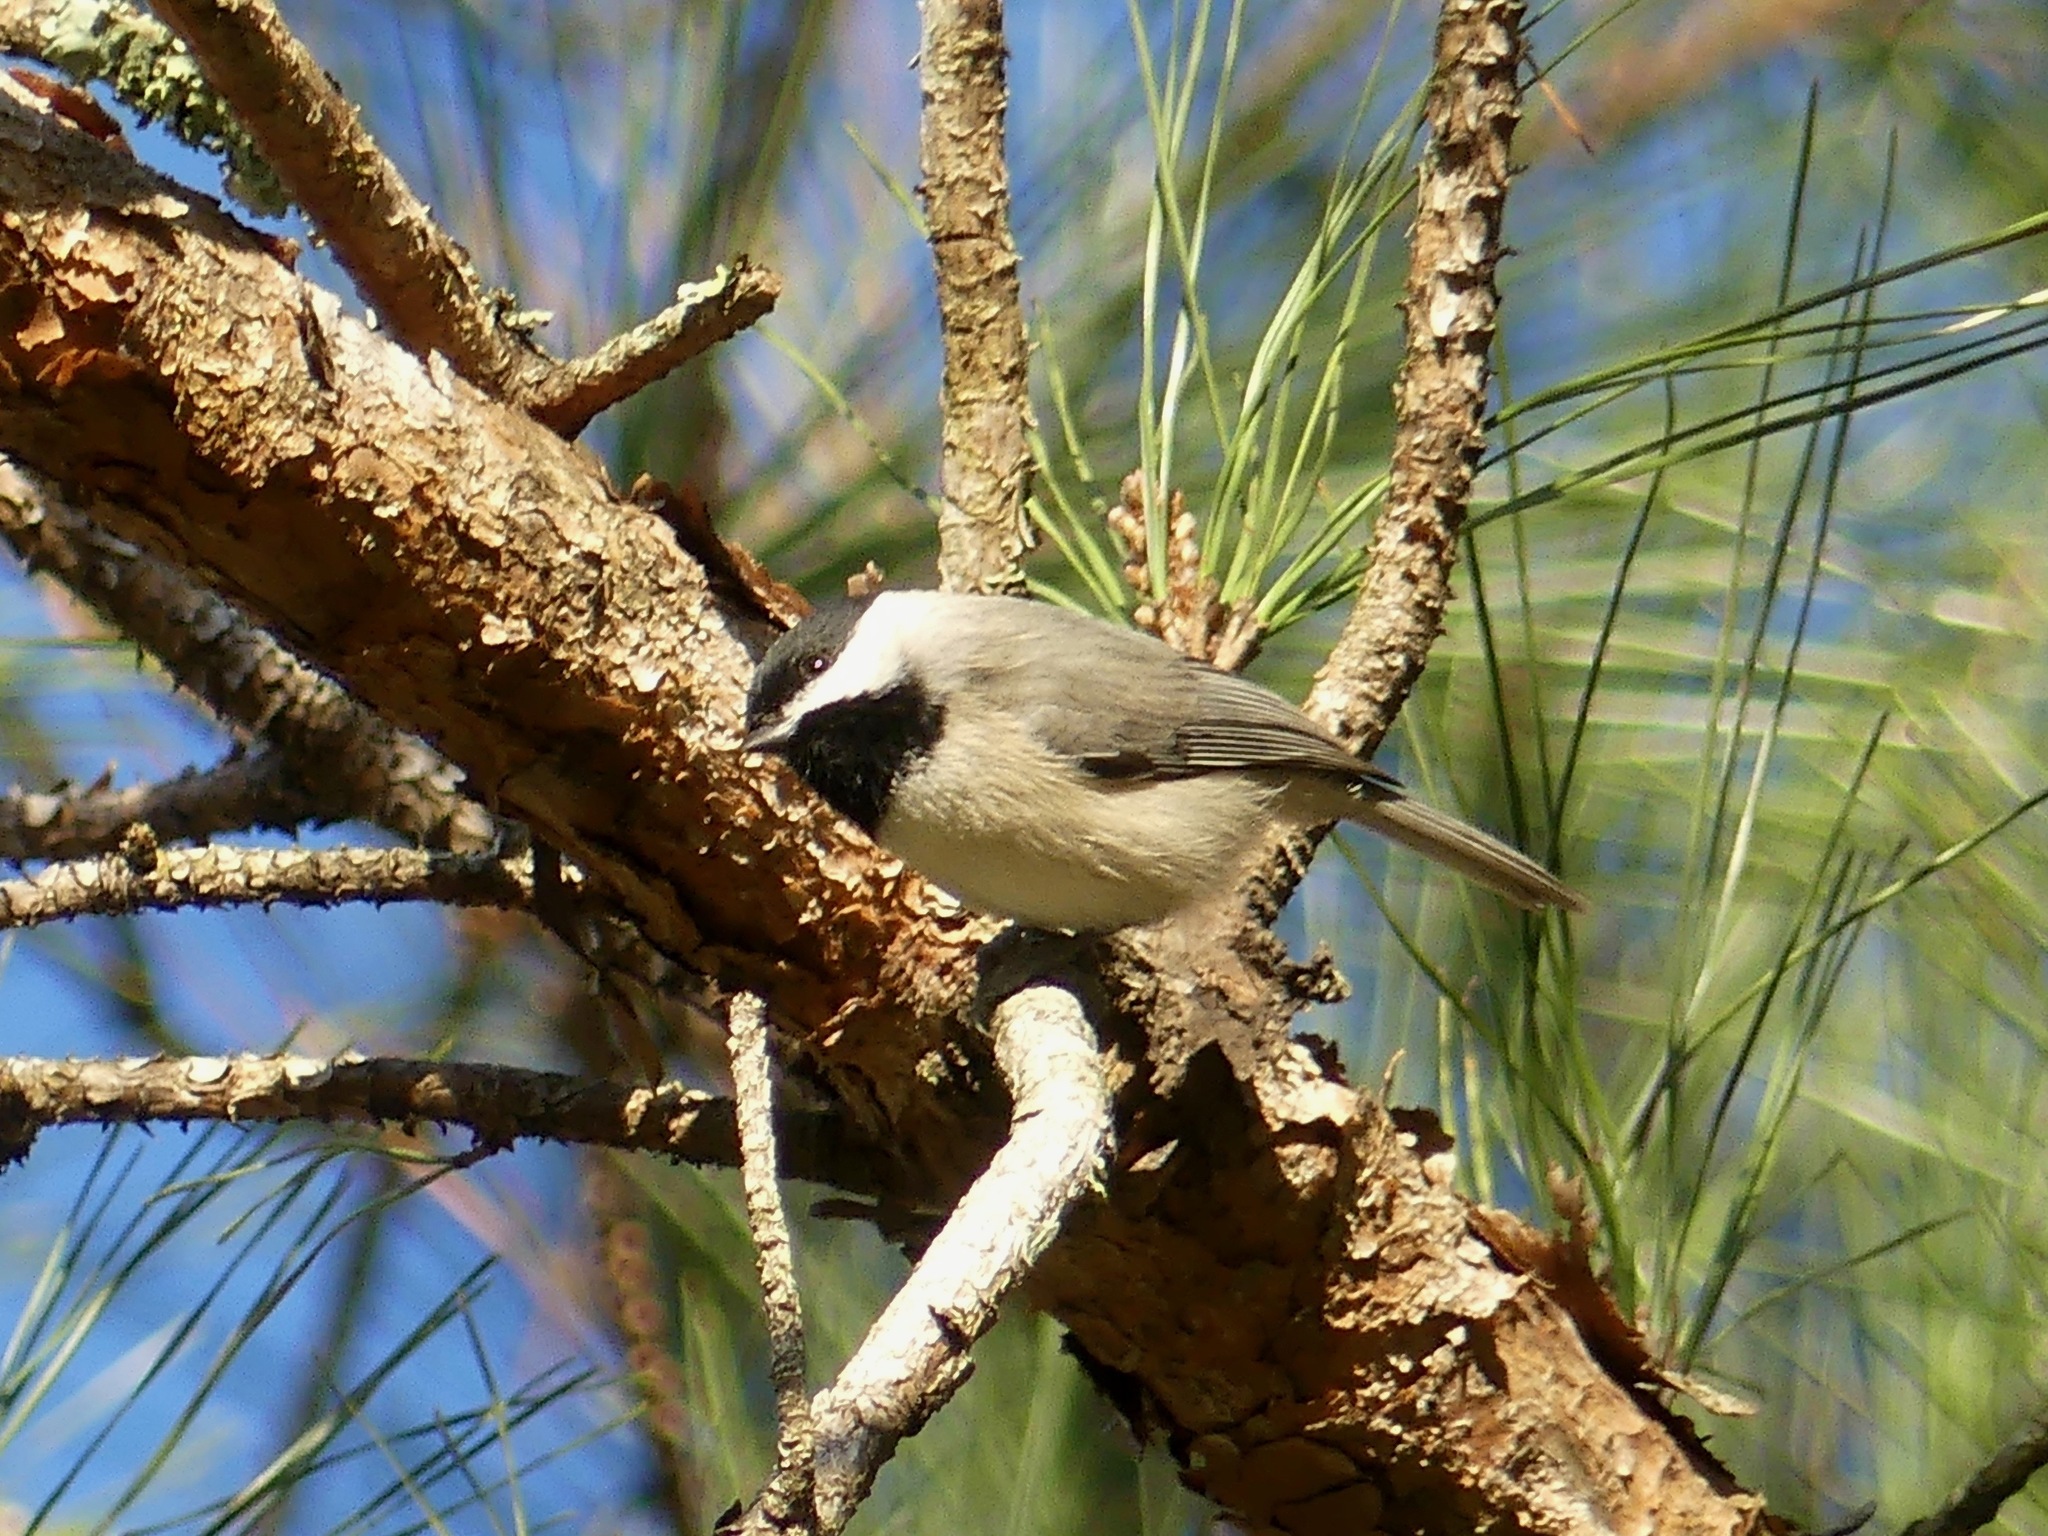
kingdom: Animalia
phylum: Chordata
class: Aves
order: Passeriformes
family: Paridae
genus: Poecile
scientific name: Poecile carolinensis
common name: Carolina chickadee
